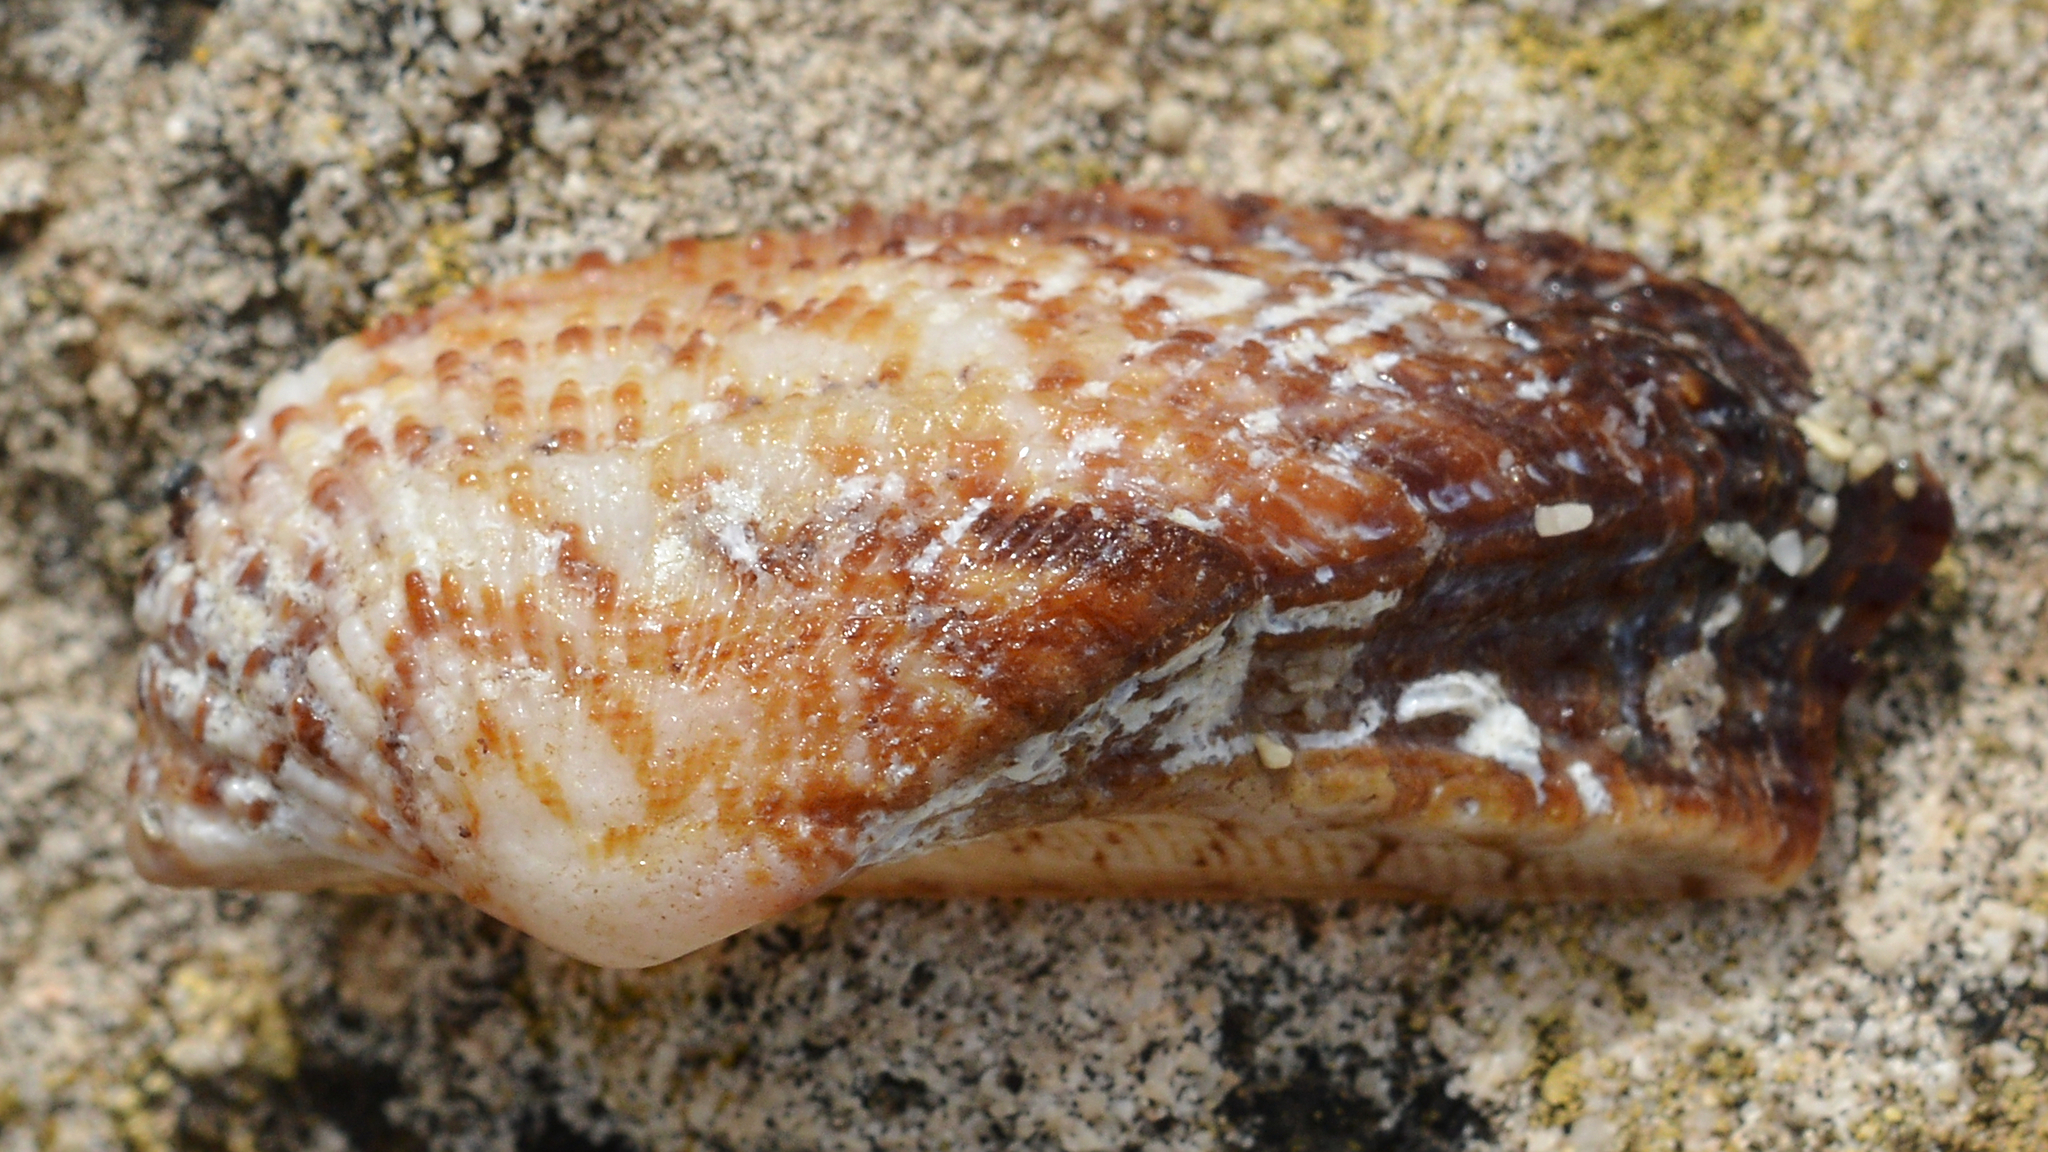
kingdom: Animalia
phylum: Mollusca
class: Bivalvia
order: Arcida
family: Arcidae
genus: Arca
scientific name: Arca noae
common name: Noah's arch
